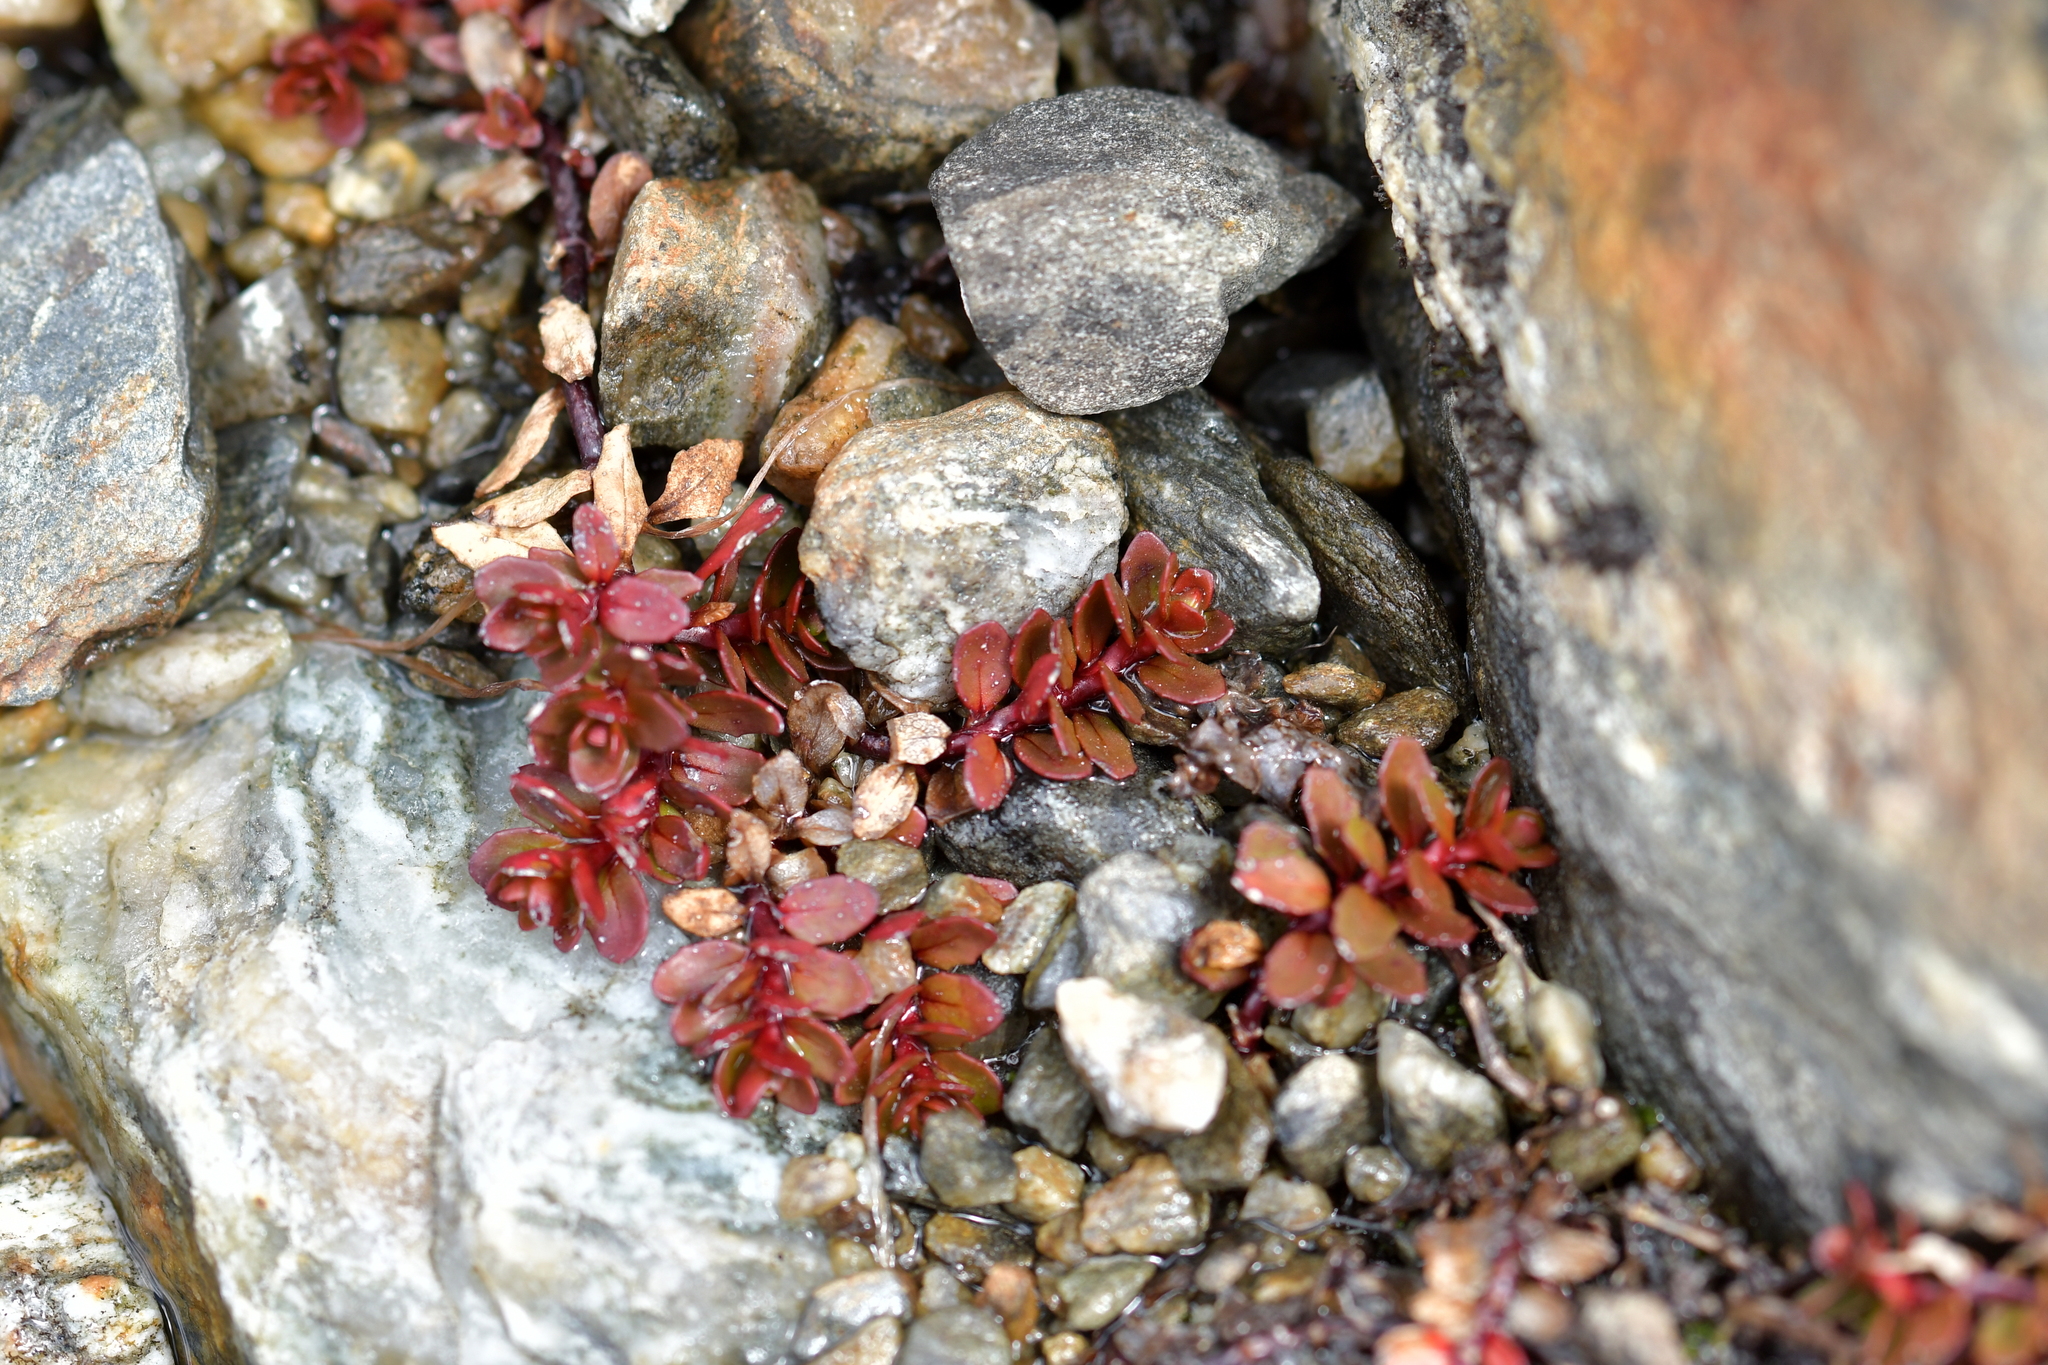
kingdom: Plantae
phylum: Tracheophyta
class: Magnoliopsida
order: Myrtales
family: Onagraceae
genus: Epilobium
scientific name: Epilobium tasmanicum
